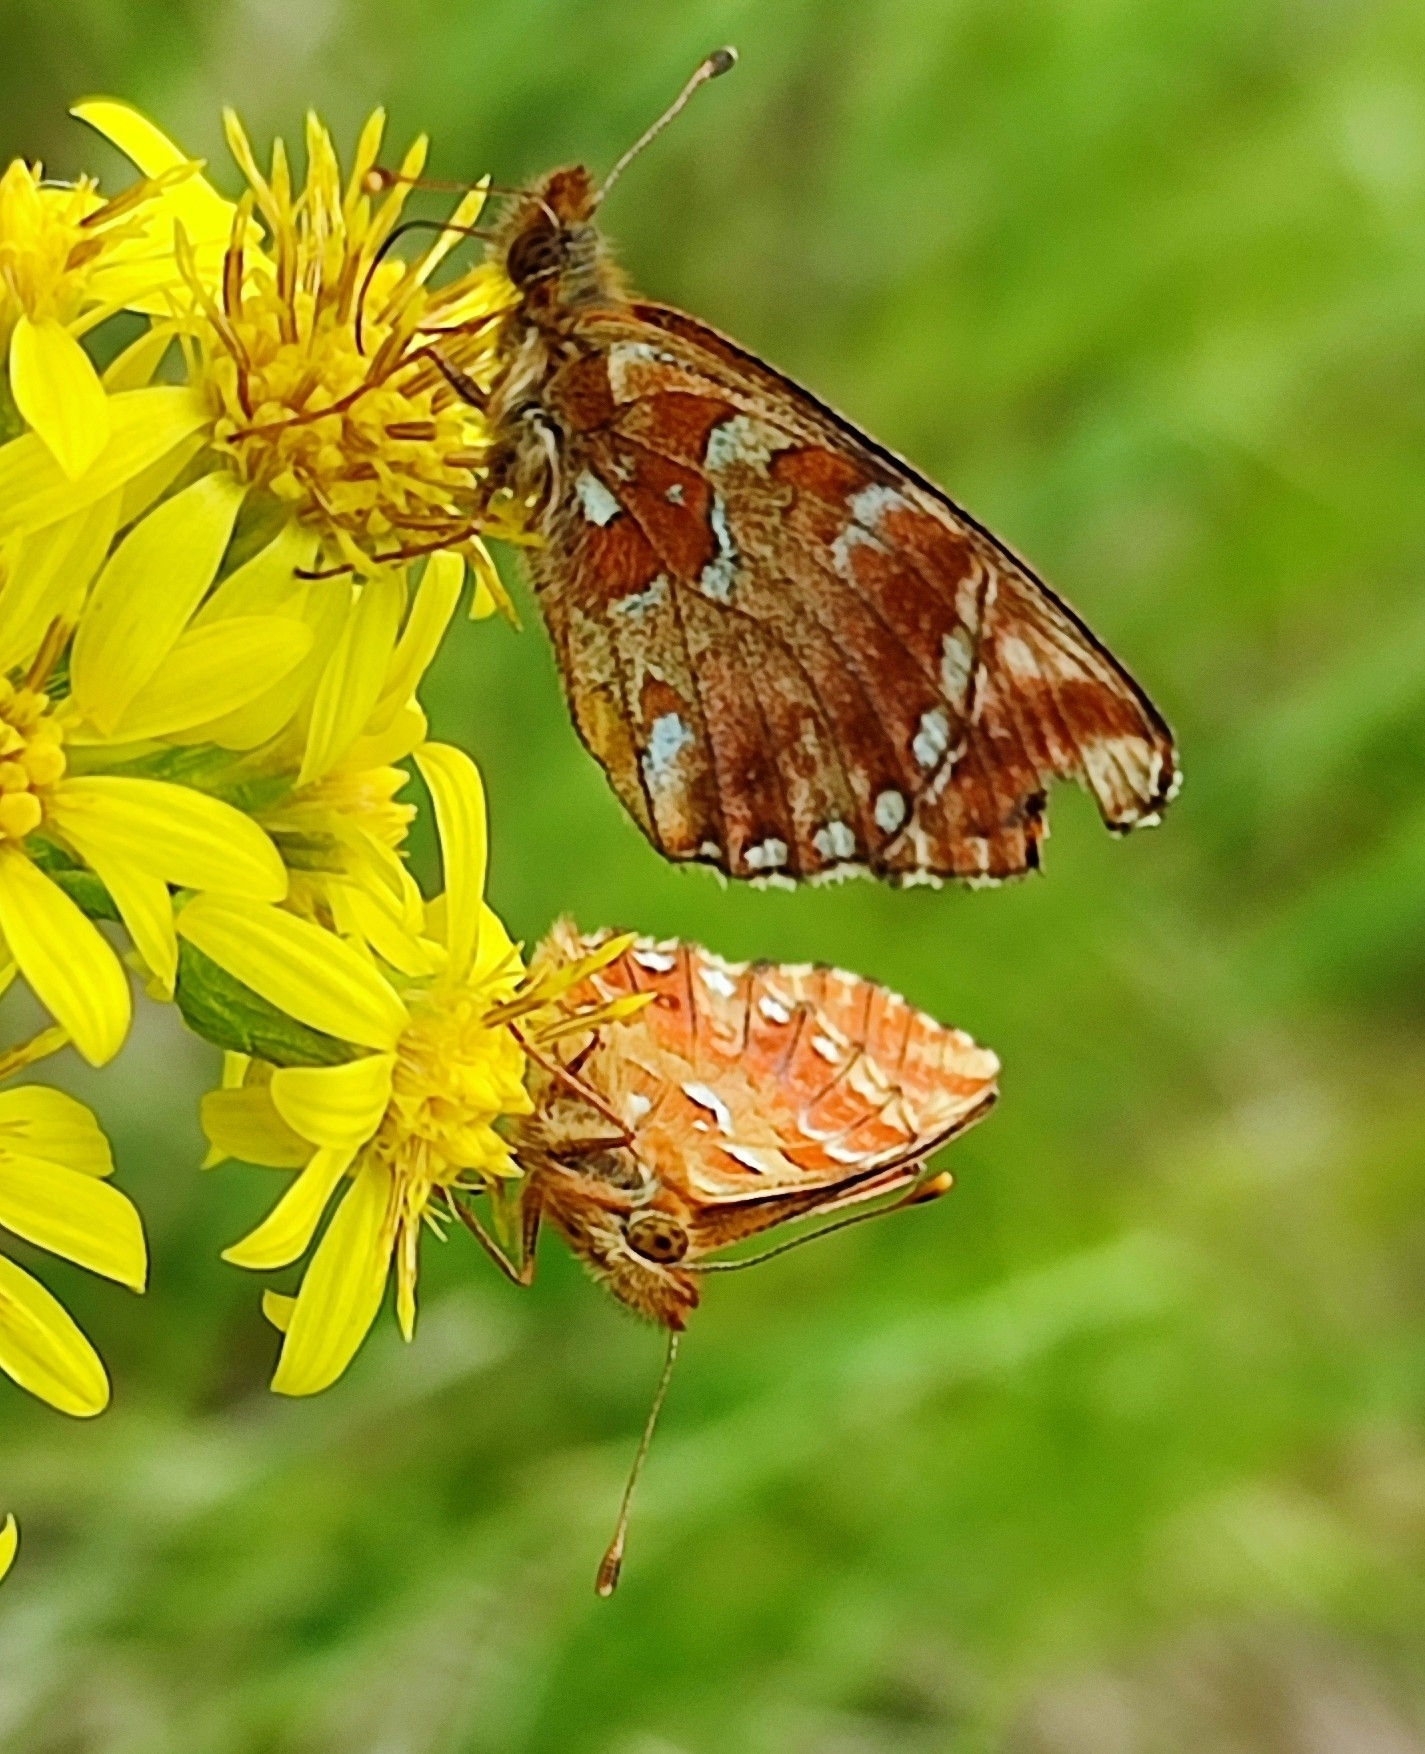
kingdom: Animalia
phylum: Arthropoda
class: Insecta
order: Lepidoptera
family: Nymphalidae
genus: Boloria
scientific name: Boloria aquilonaris
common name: Cranberry fritillary
